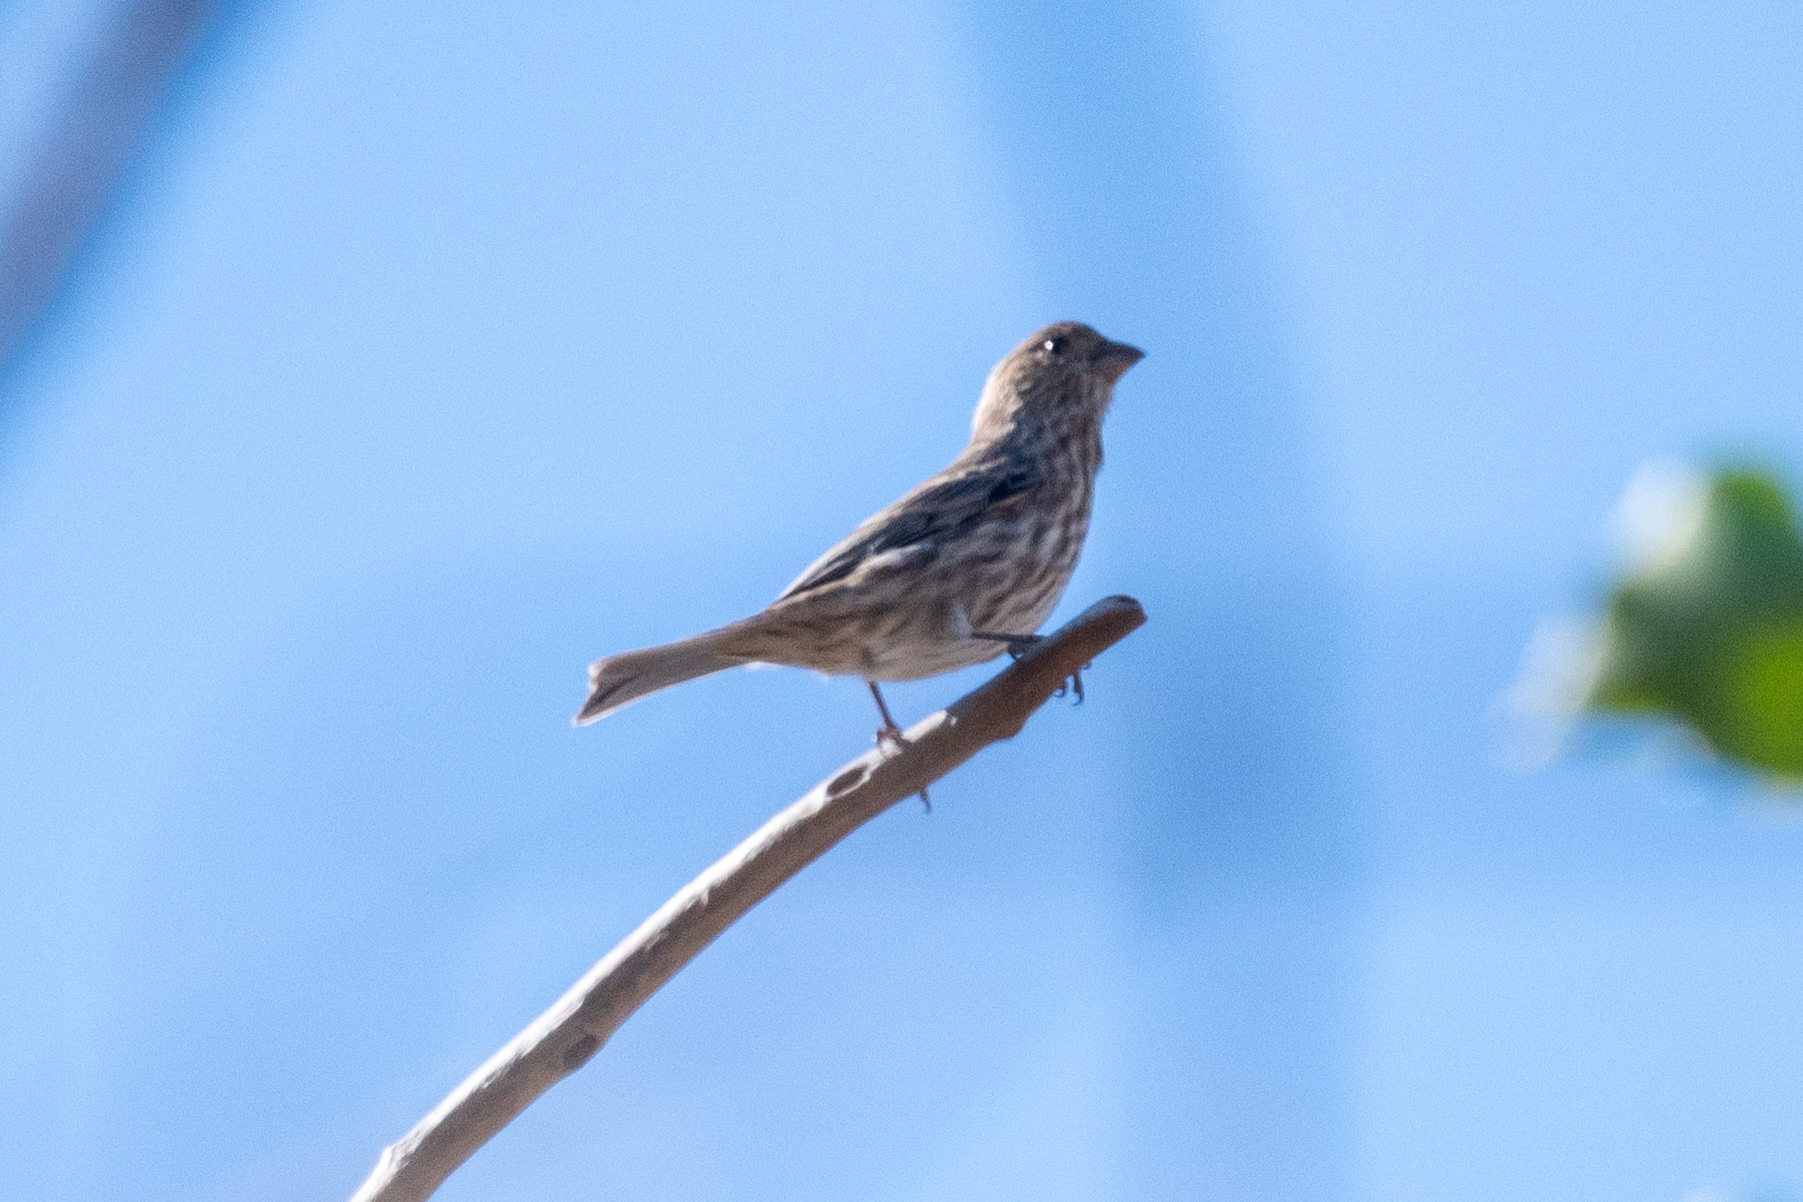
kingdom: Animalia
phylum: Chordata
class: Aves
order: Passeriformes
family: Fringillidae
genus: Haemorhous
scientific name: Haemorhous mexicanus
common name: House finch
